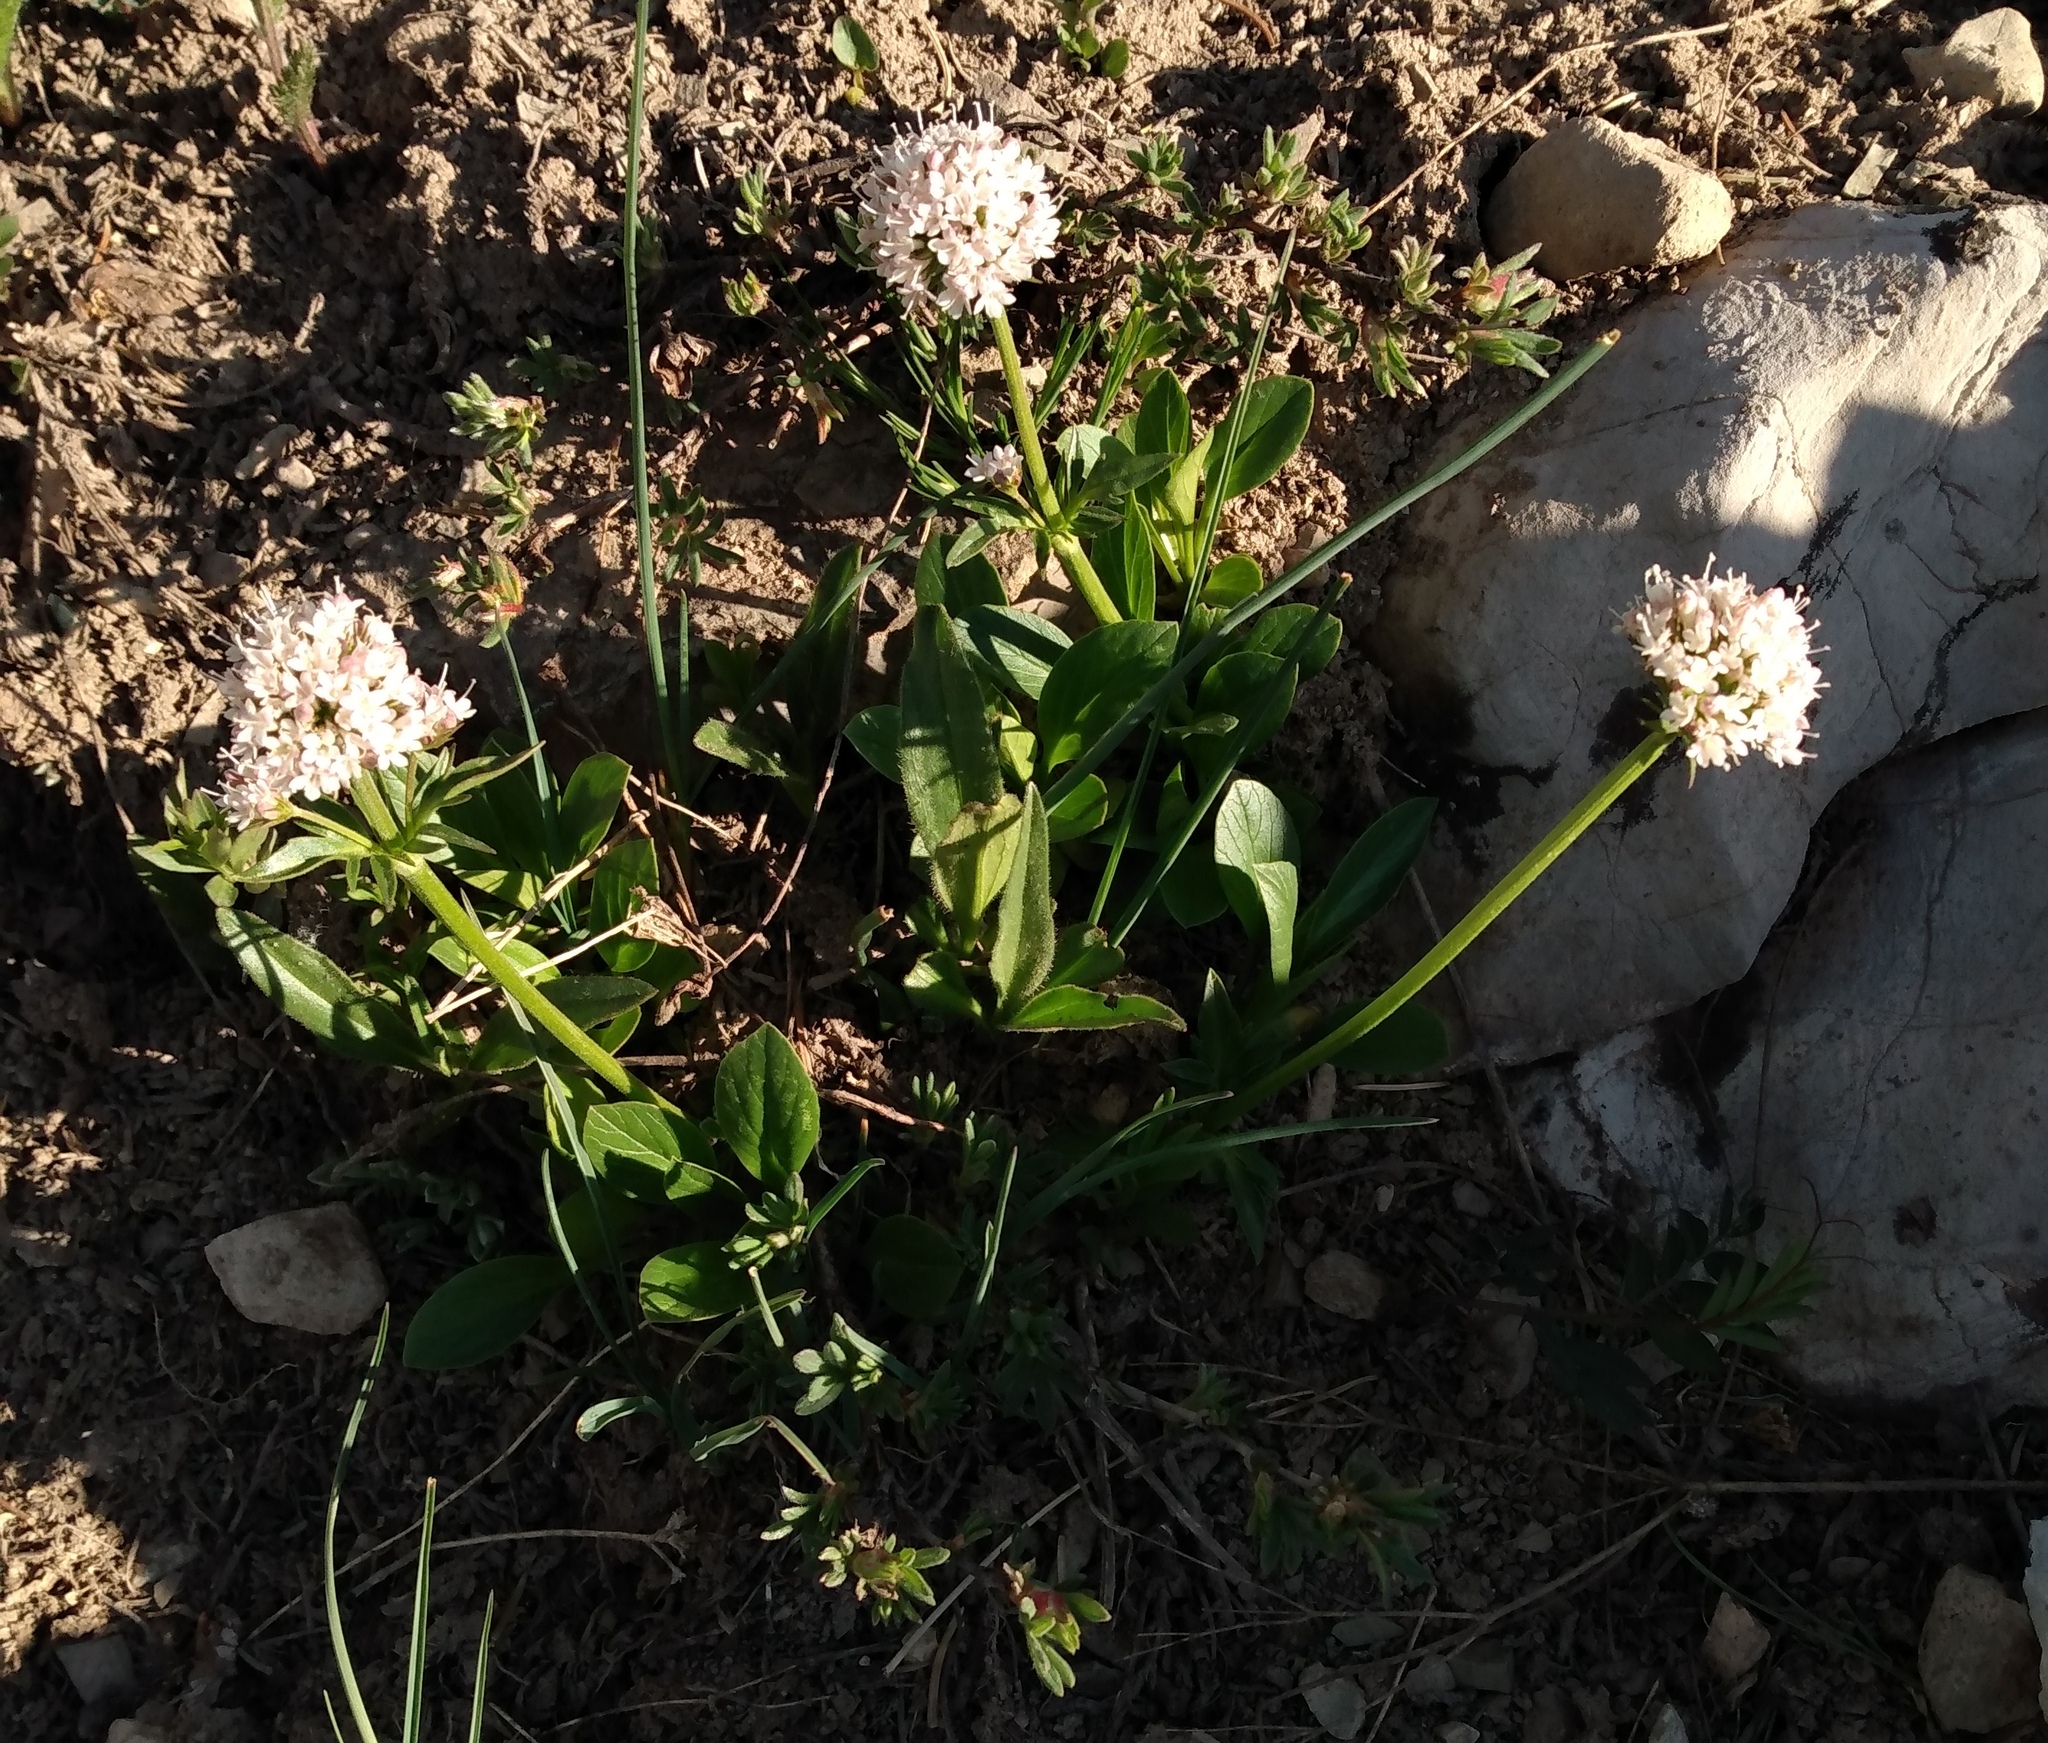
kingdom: Plantae
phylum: Tracheophyta
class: Magnoliopsida
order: Dipsacales
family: Caprifoliaceae
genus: Valeriana
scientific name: Valeriana acutiloba
